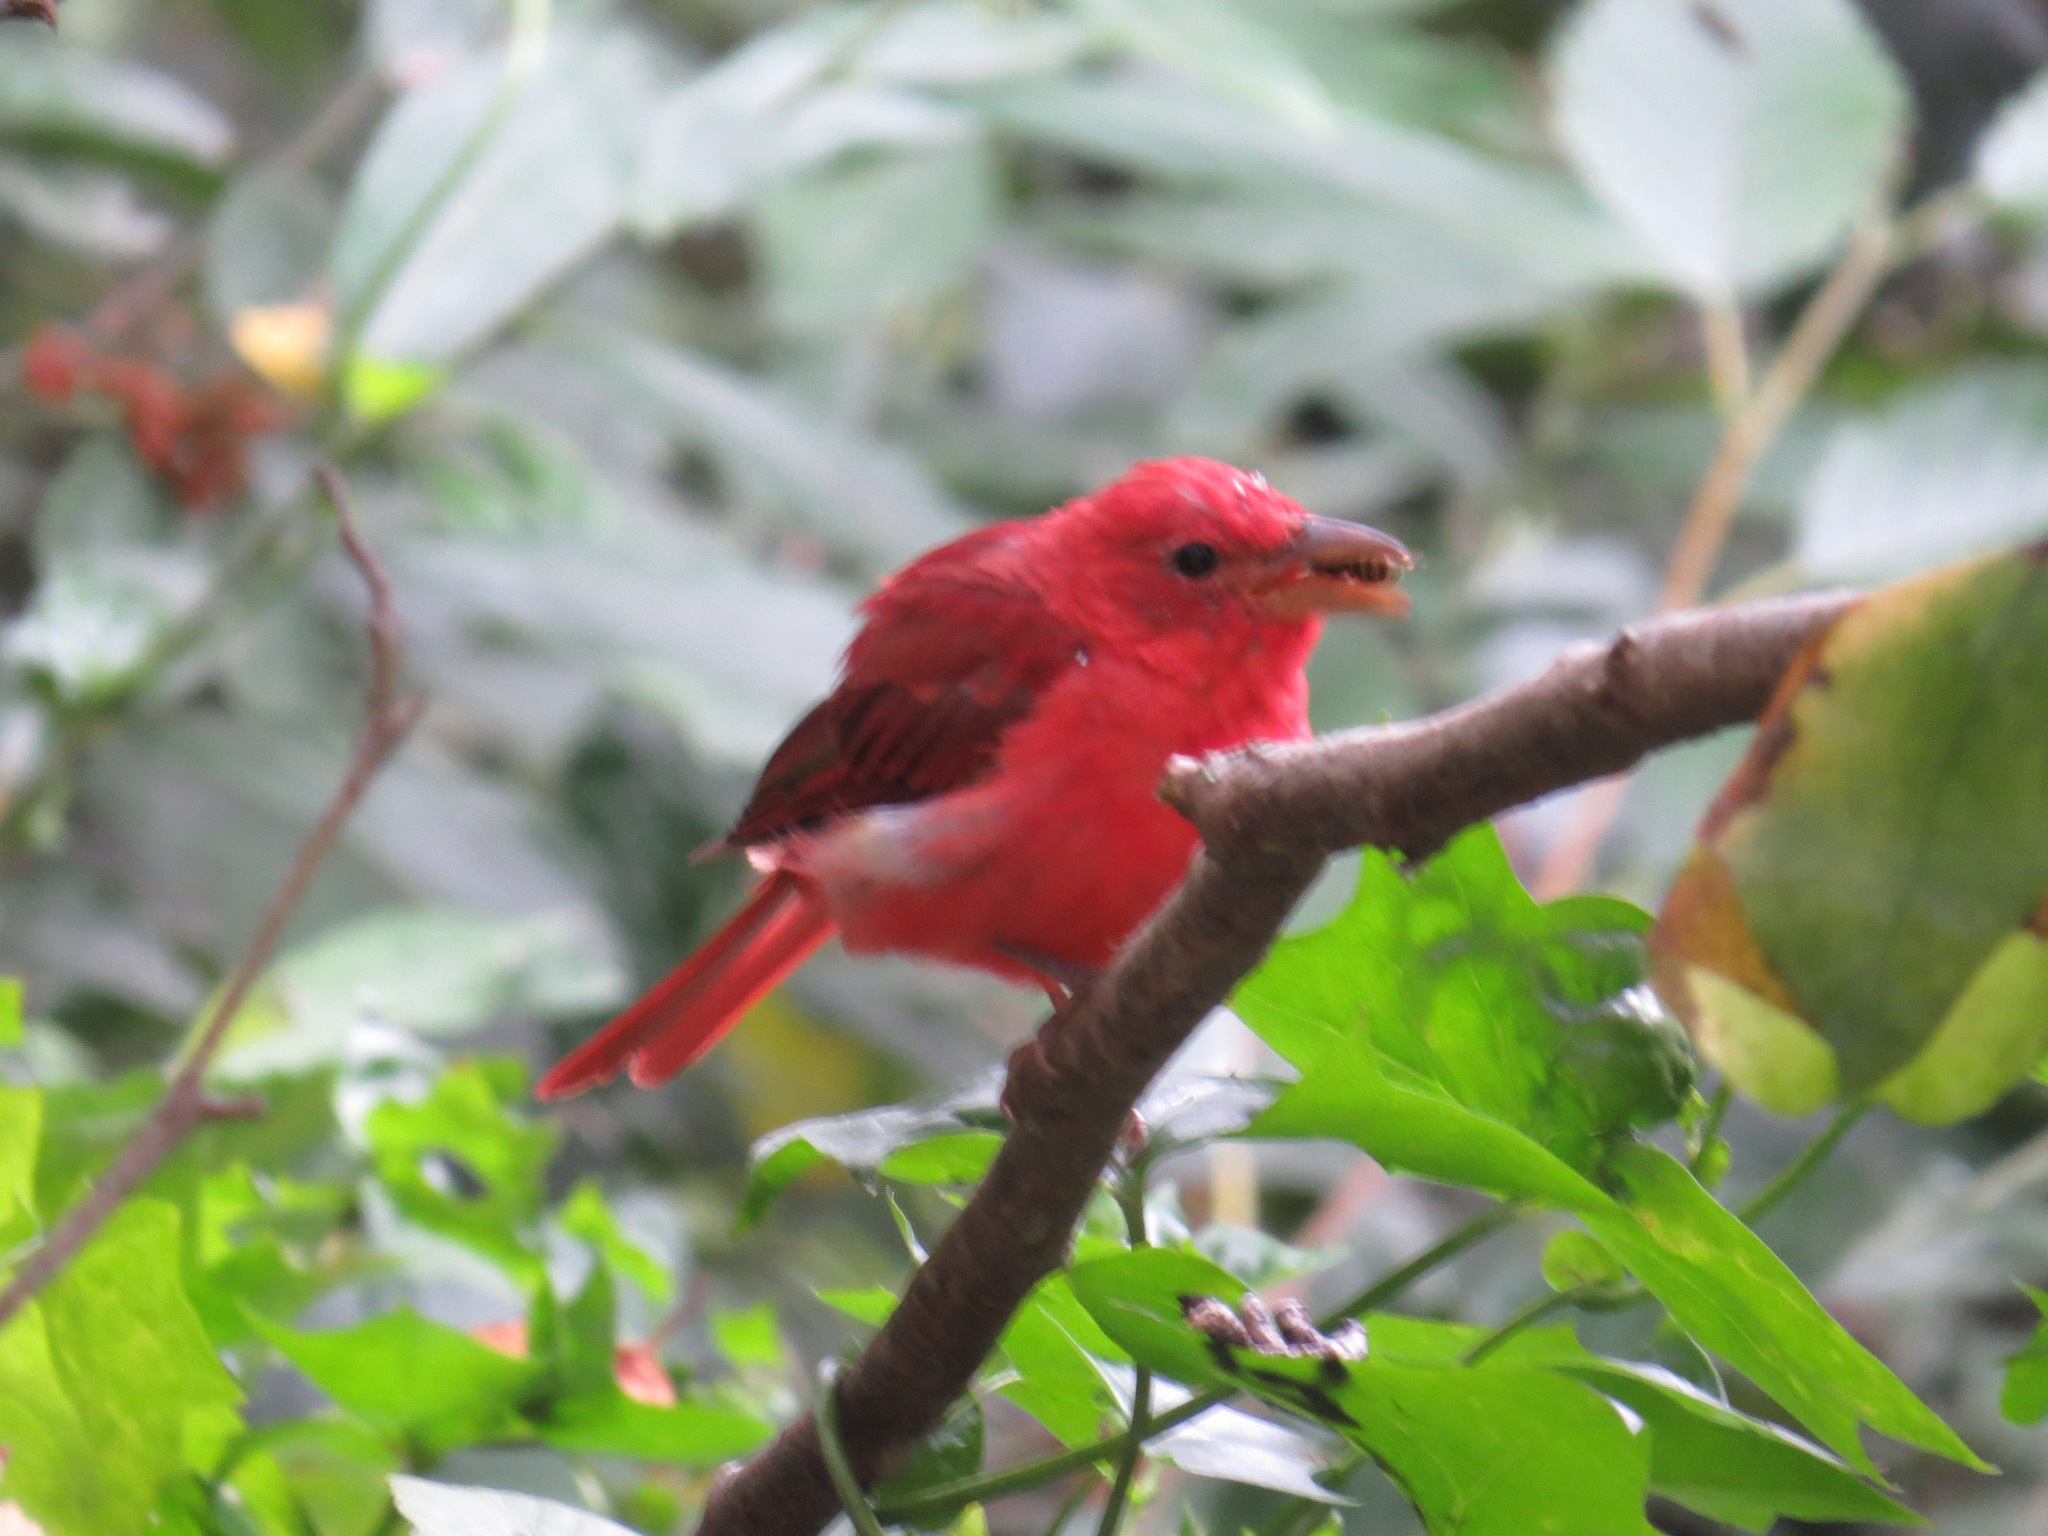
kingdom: Animalia
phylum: Chordata
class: Aves
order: Passeriformes
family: Cardinalidae
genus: Piranga
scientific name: Piranga rubra
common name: Summer tanager
